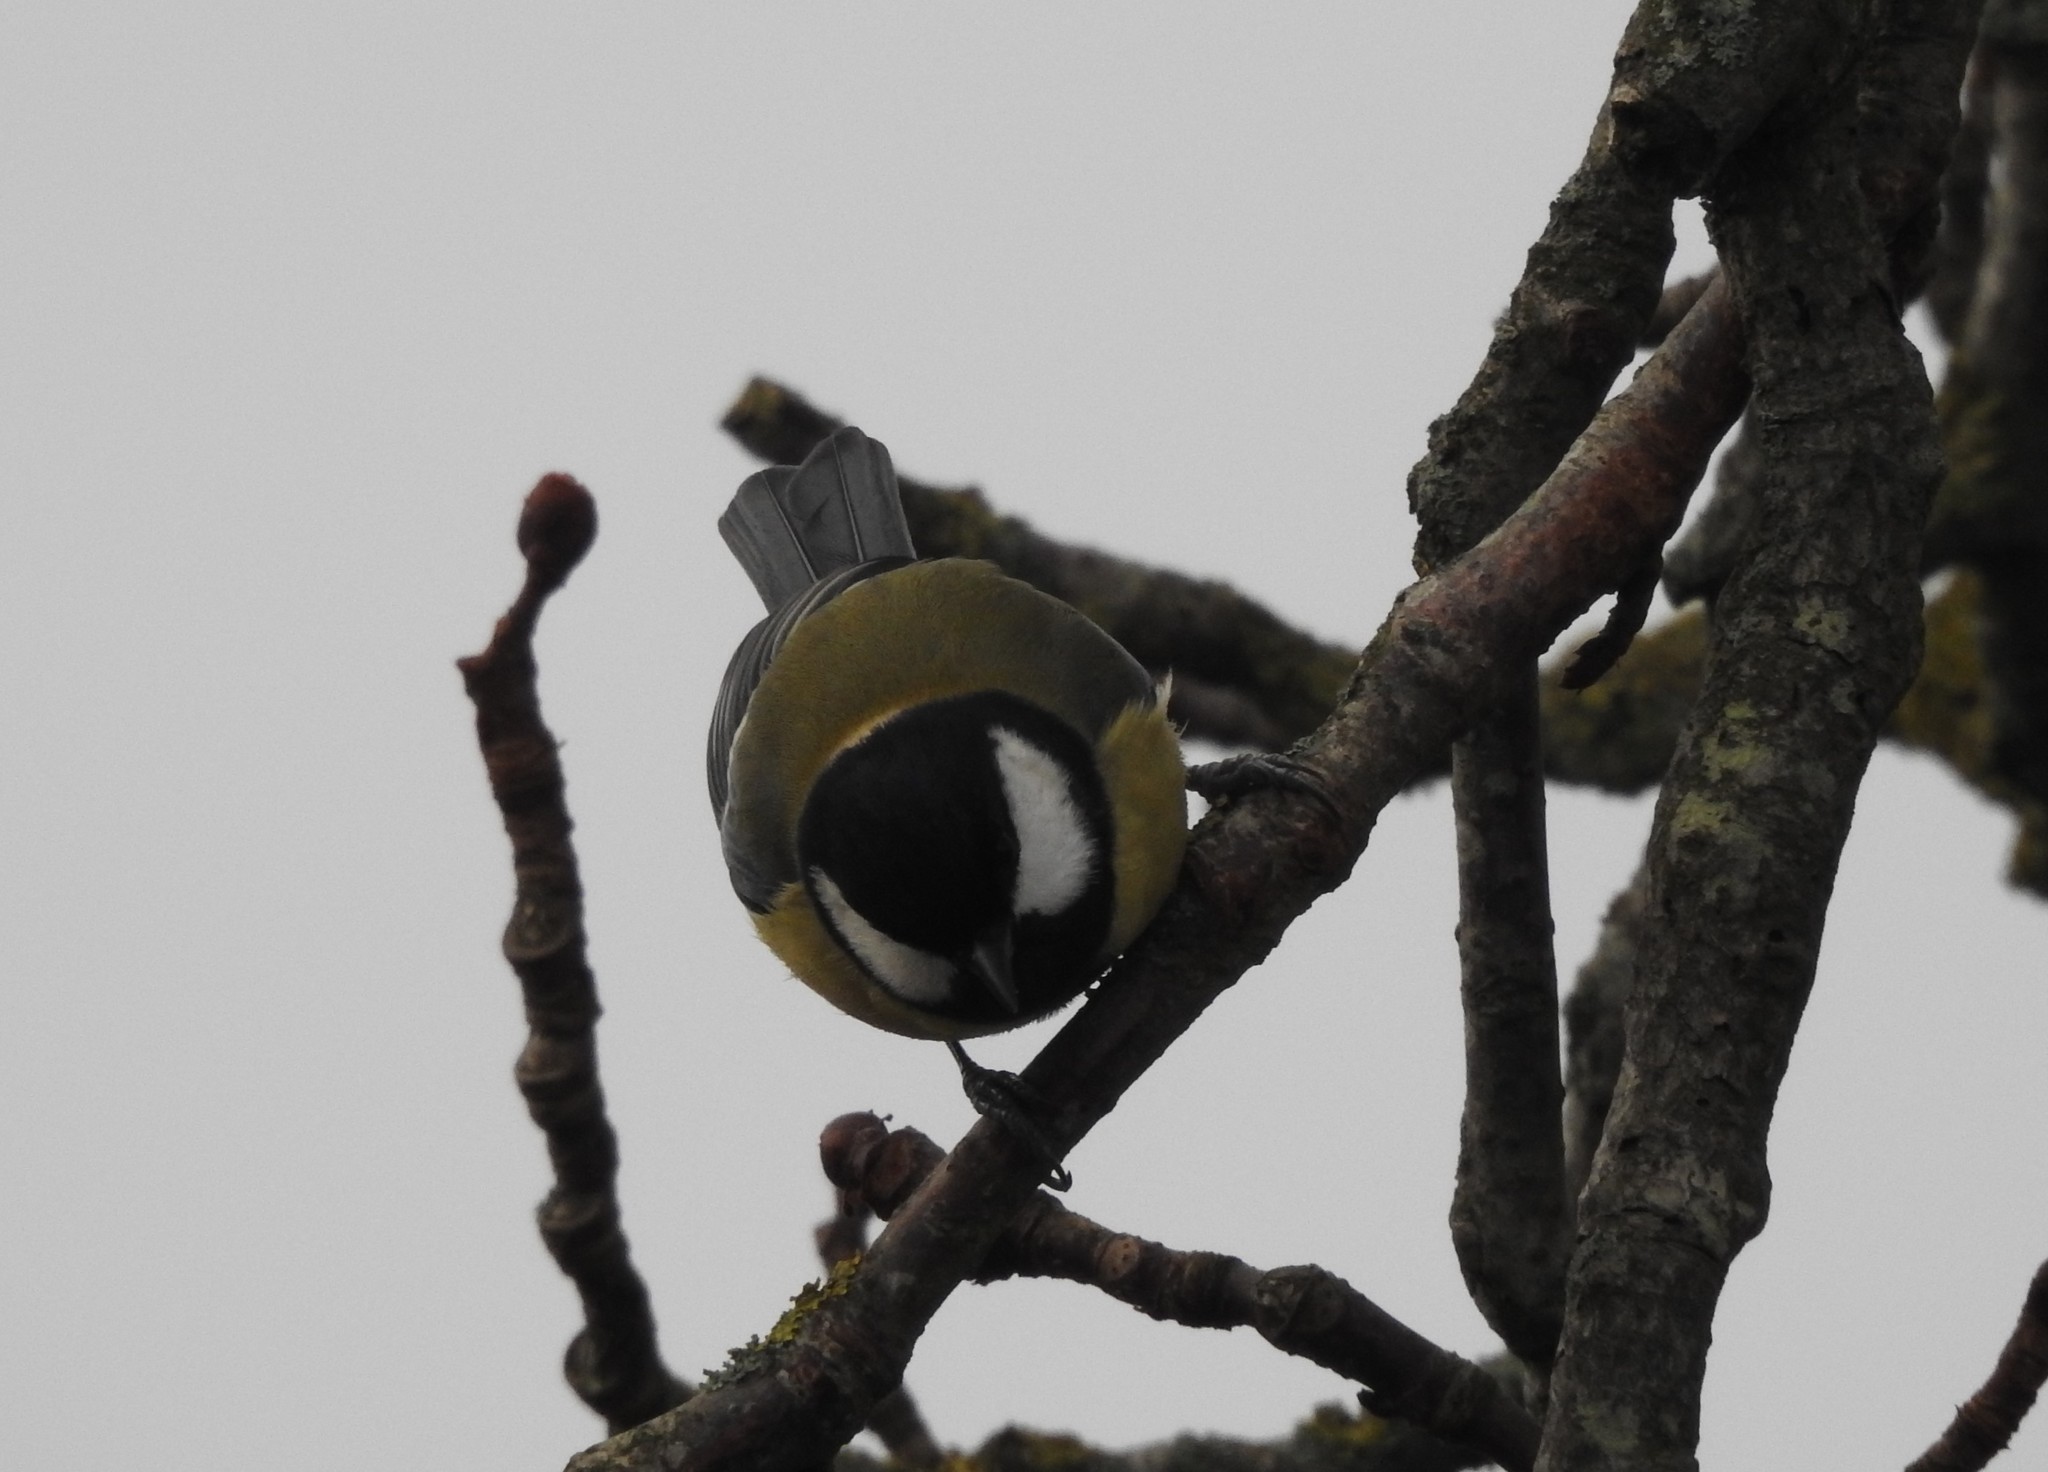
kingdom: Animalia
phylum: Chordata
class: Aves
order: Passeriformes
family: Paridae
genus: Parus
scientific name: Parus major
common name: Great tit
